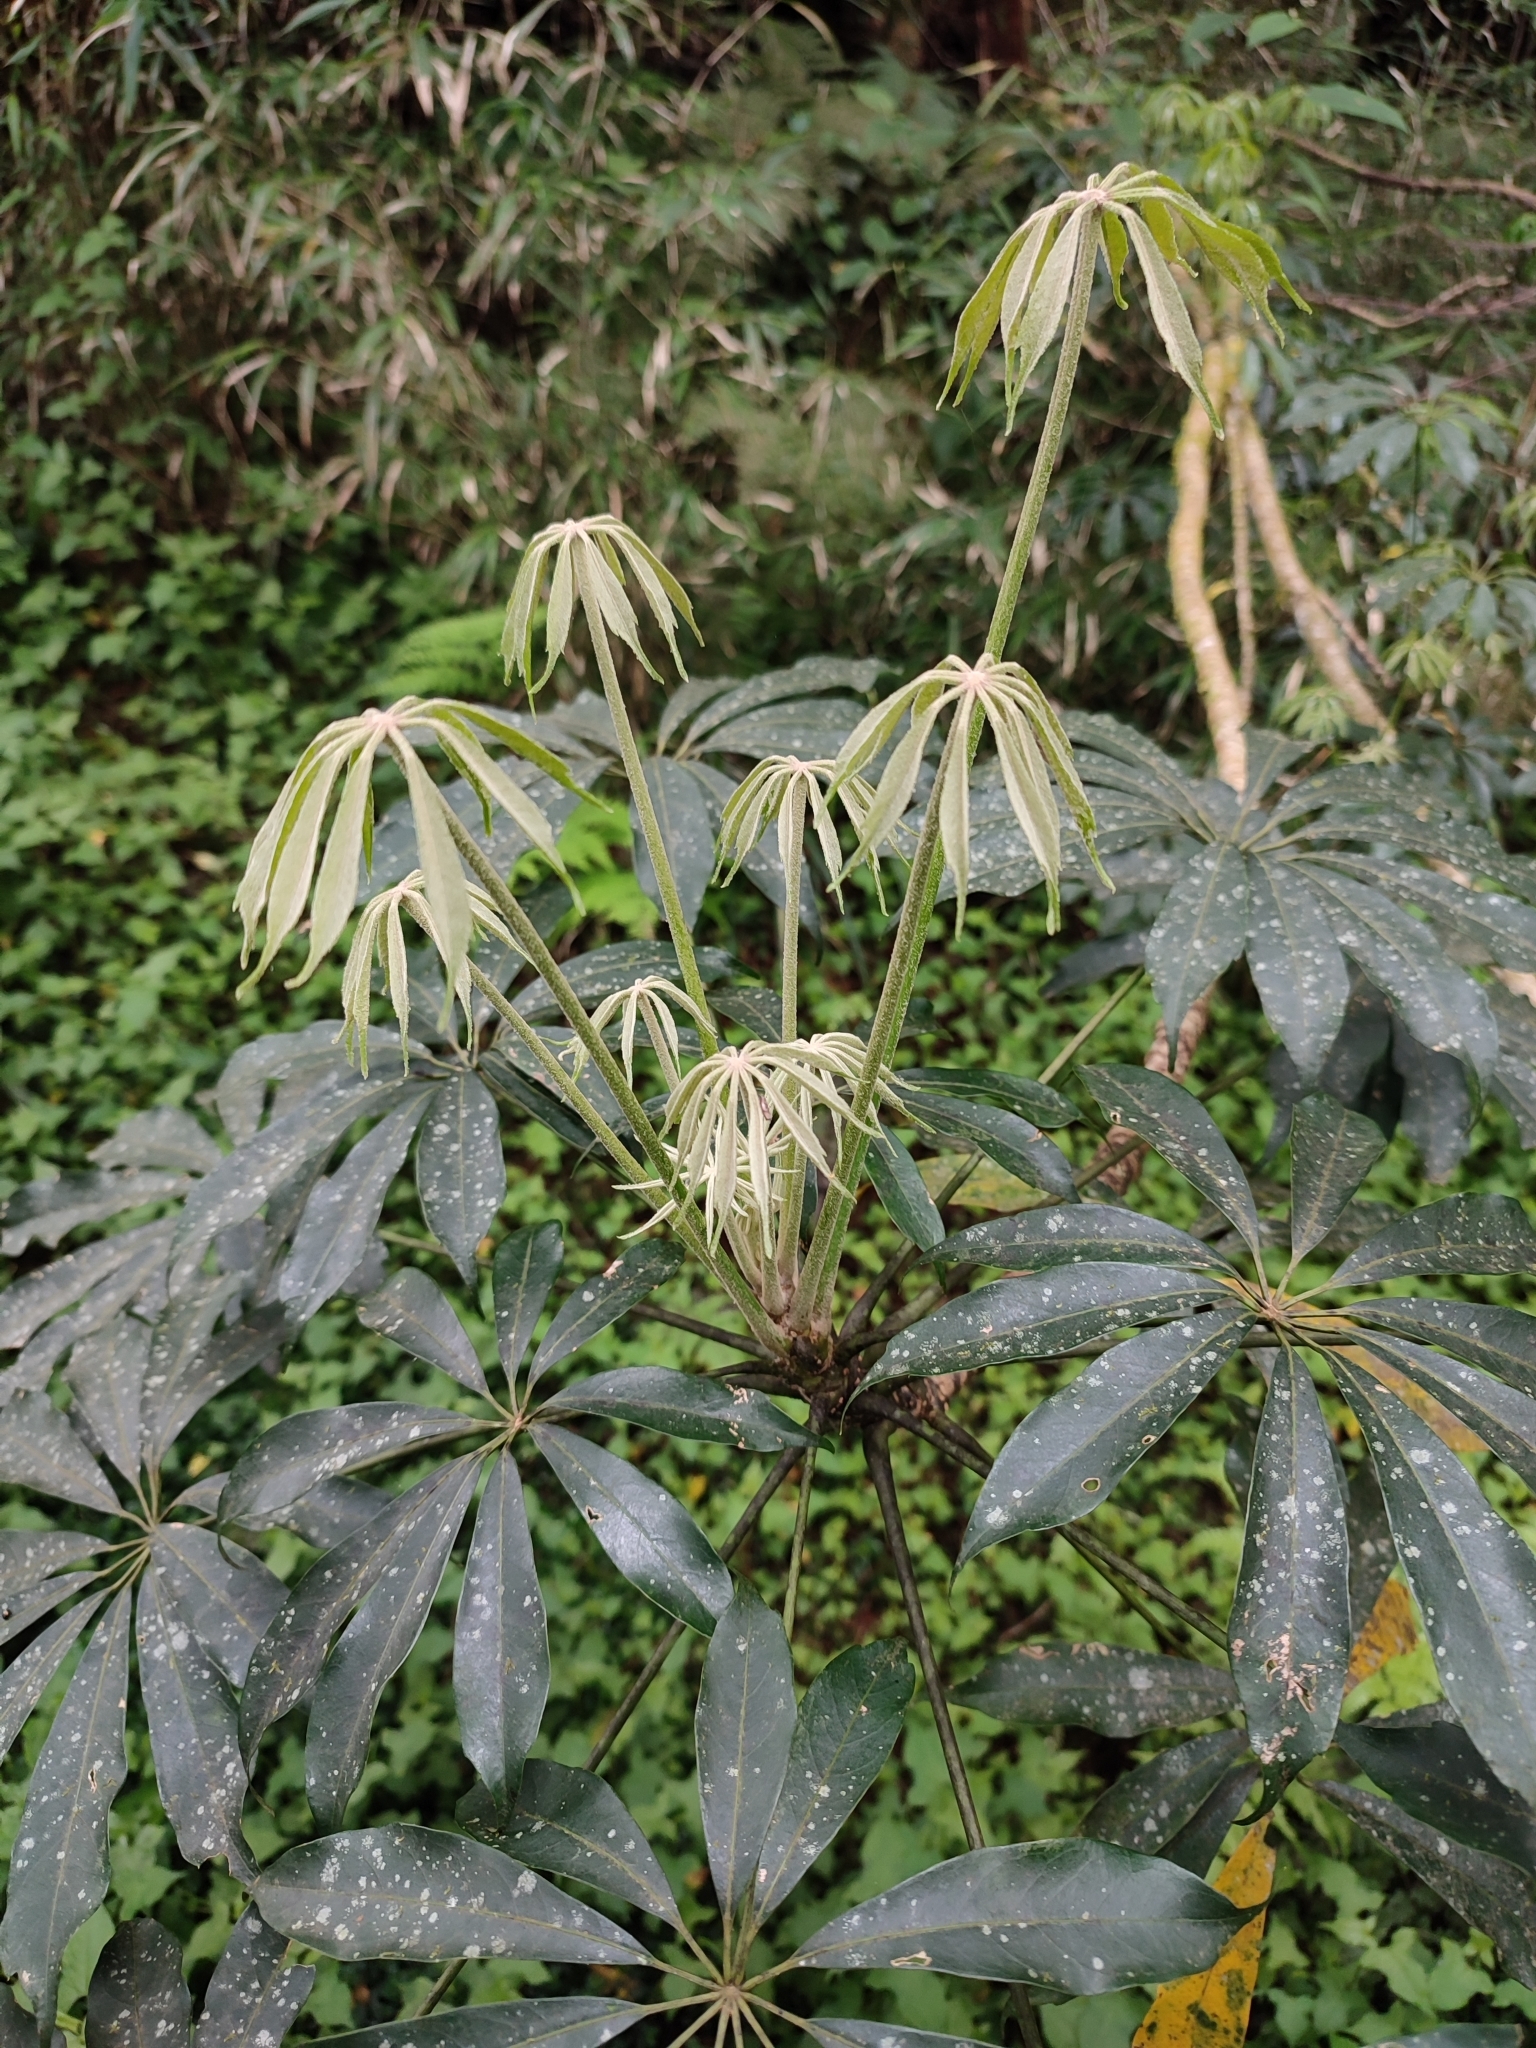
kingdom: Plantae
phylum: Tracheophyta
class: Magnoliopsida
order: Apiales
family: Araliaceae
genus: Heptapleurum
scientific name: Heptapleurum taiwanianum
